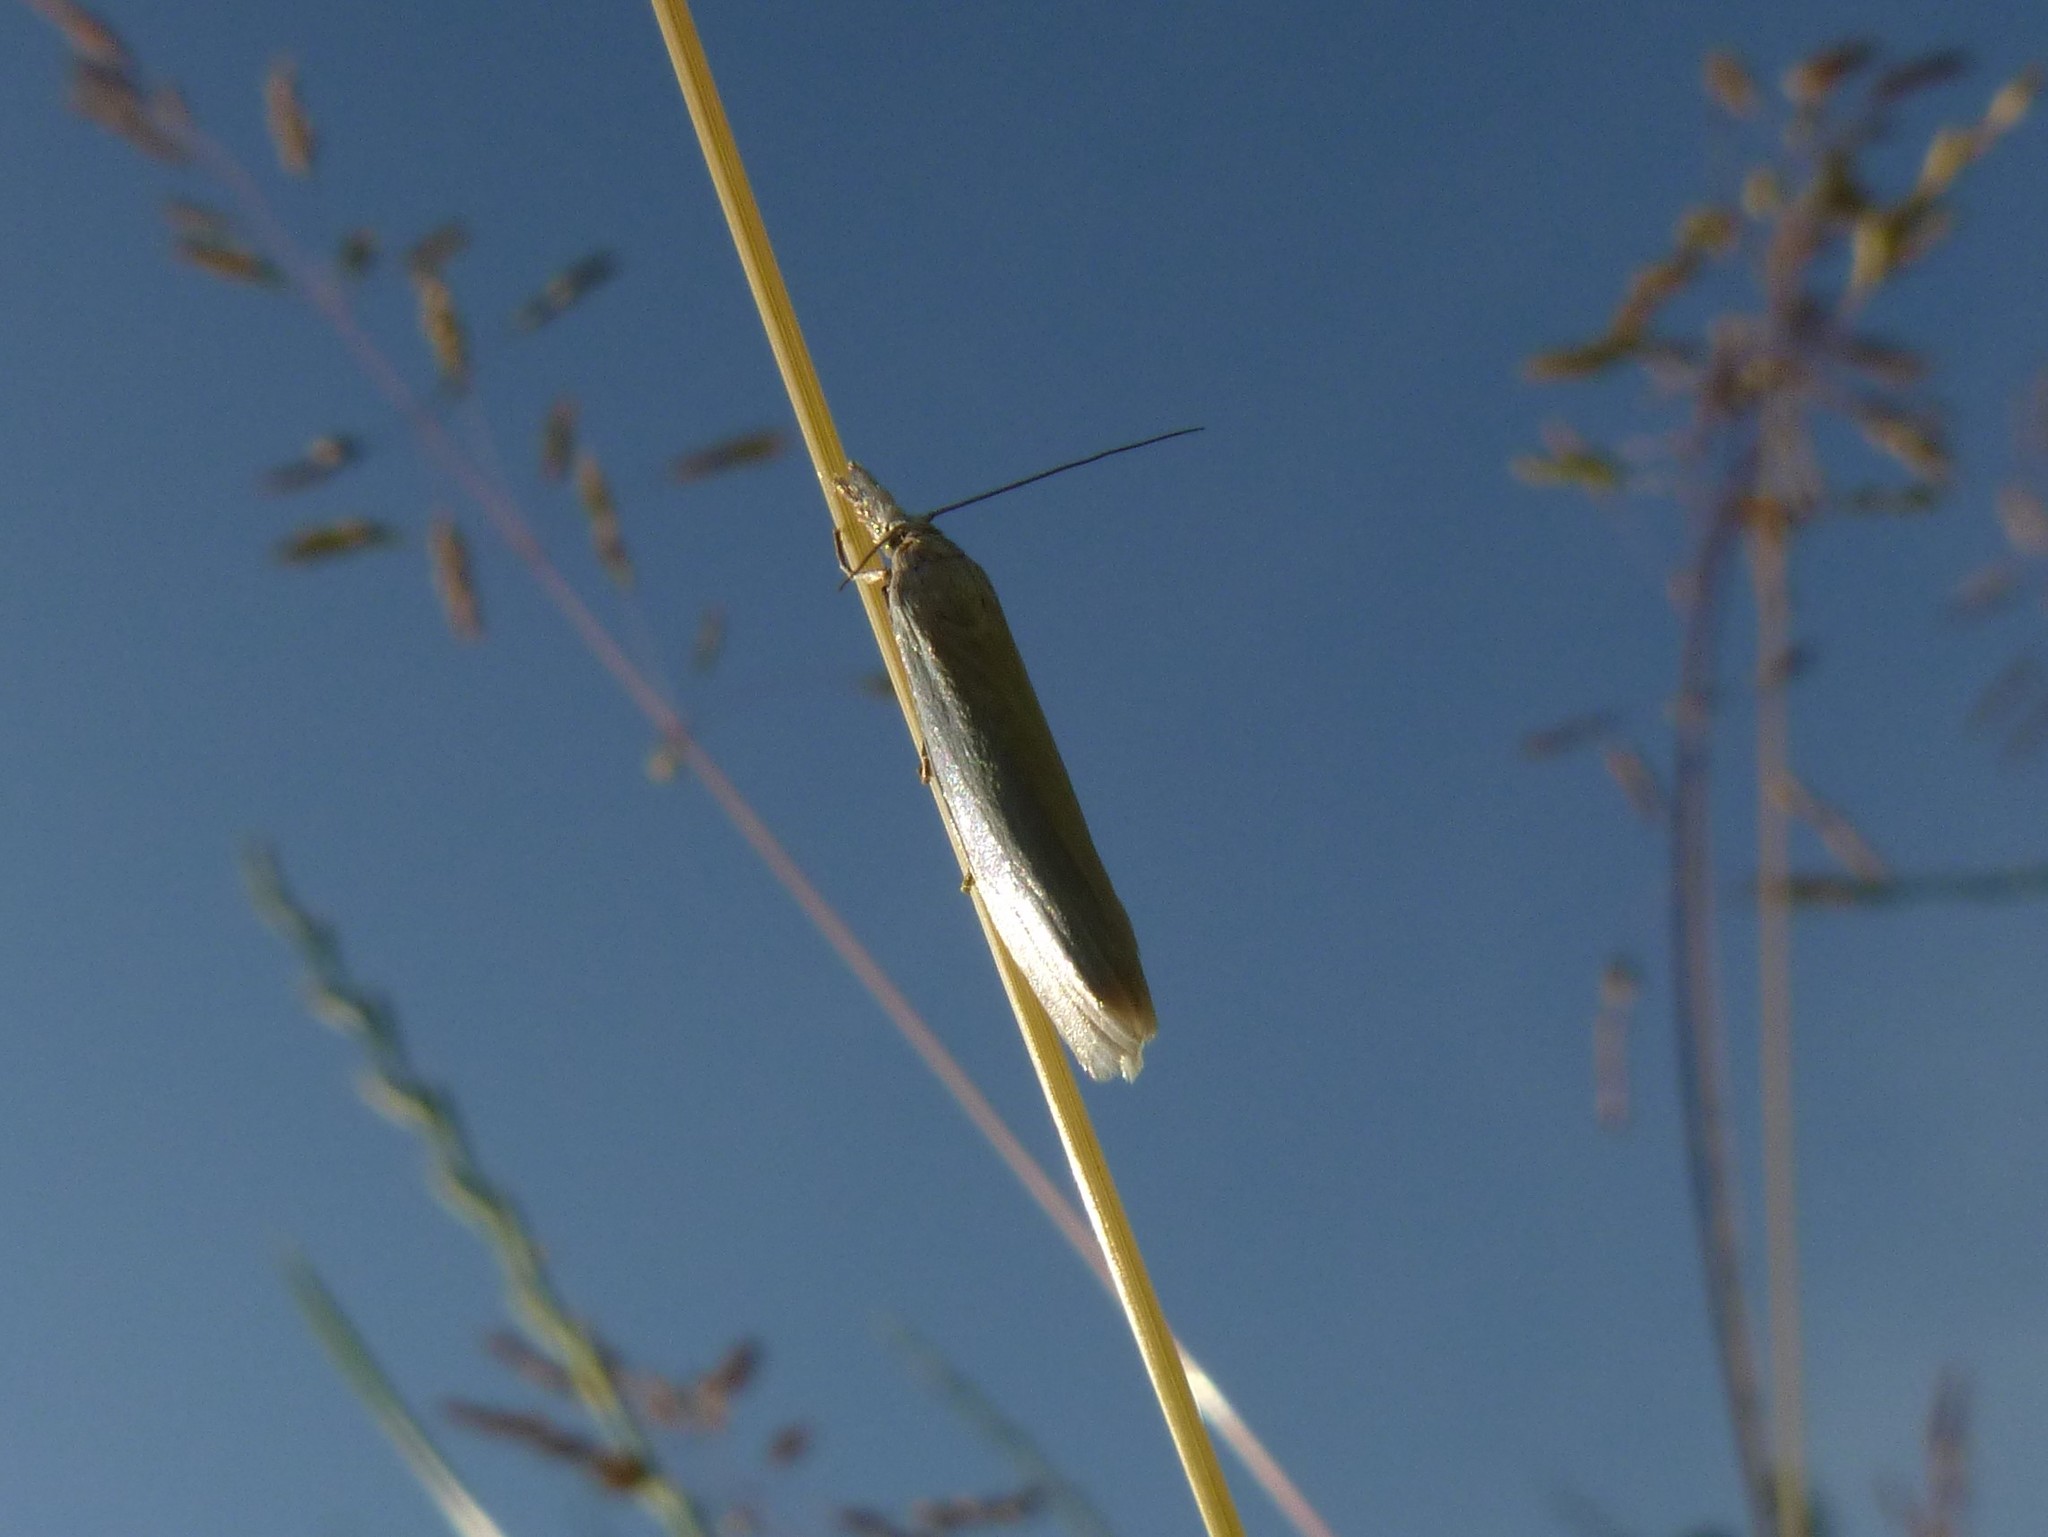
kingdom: Animalia
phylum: Arthropoda
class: Insecta
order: Lepidoptera
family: Crambidae
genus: Crambus
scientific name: Crambus perlellus
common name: Yellow satin veneer
